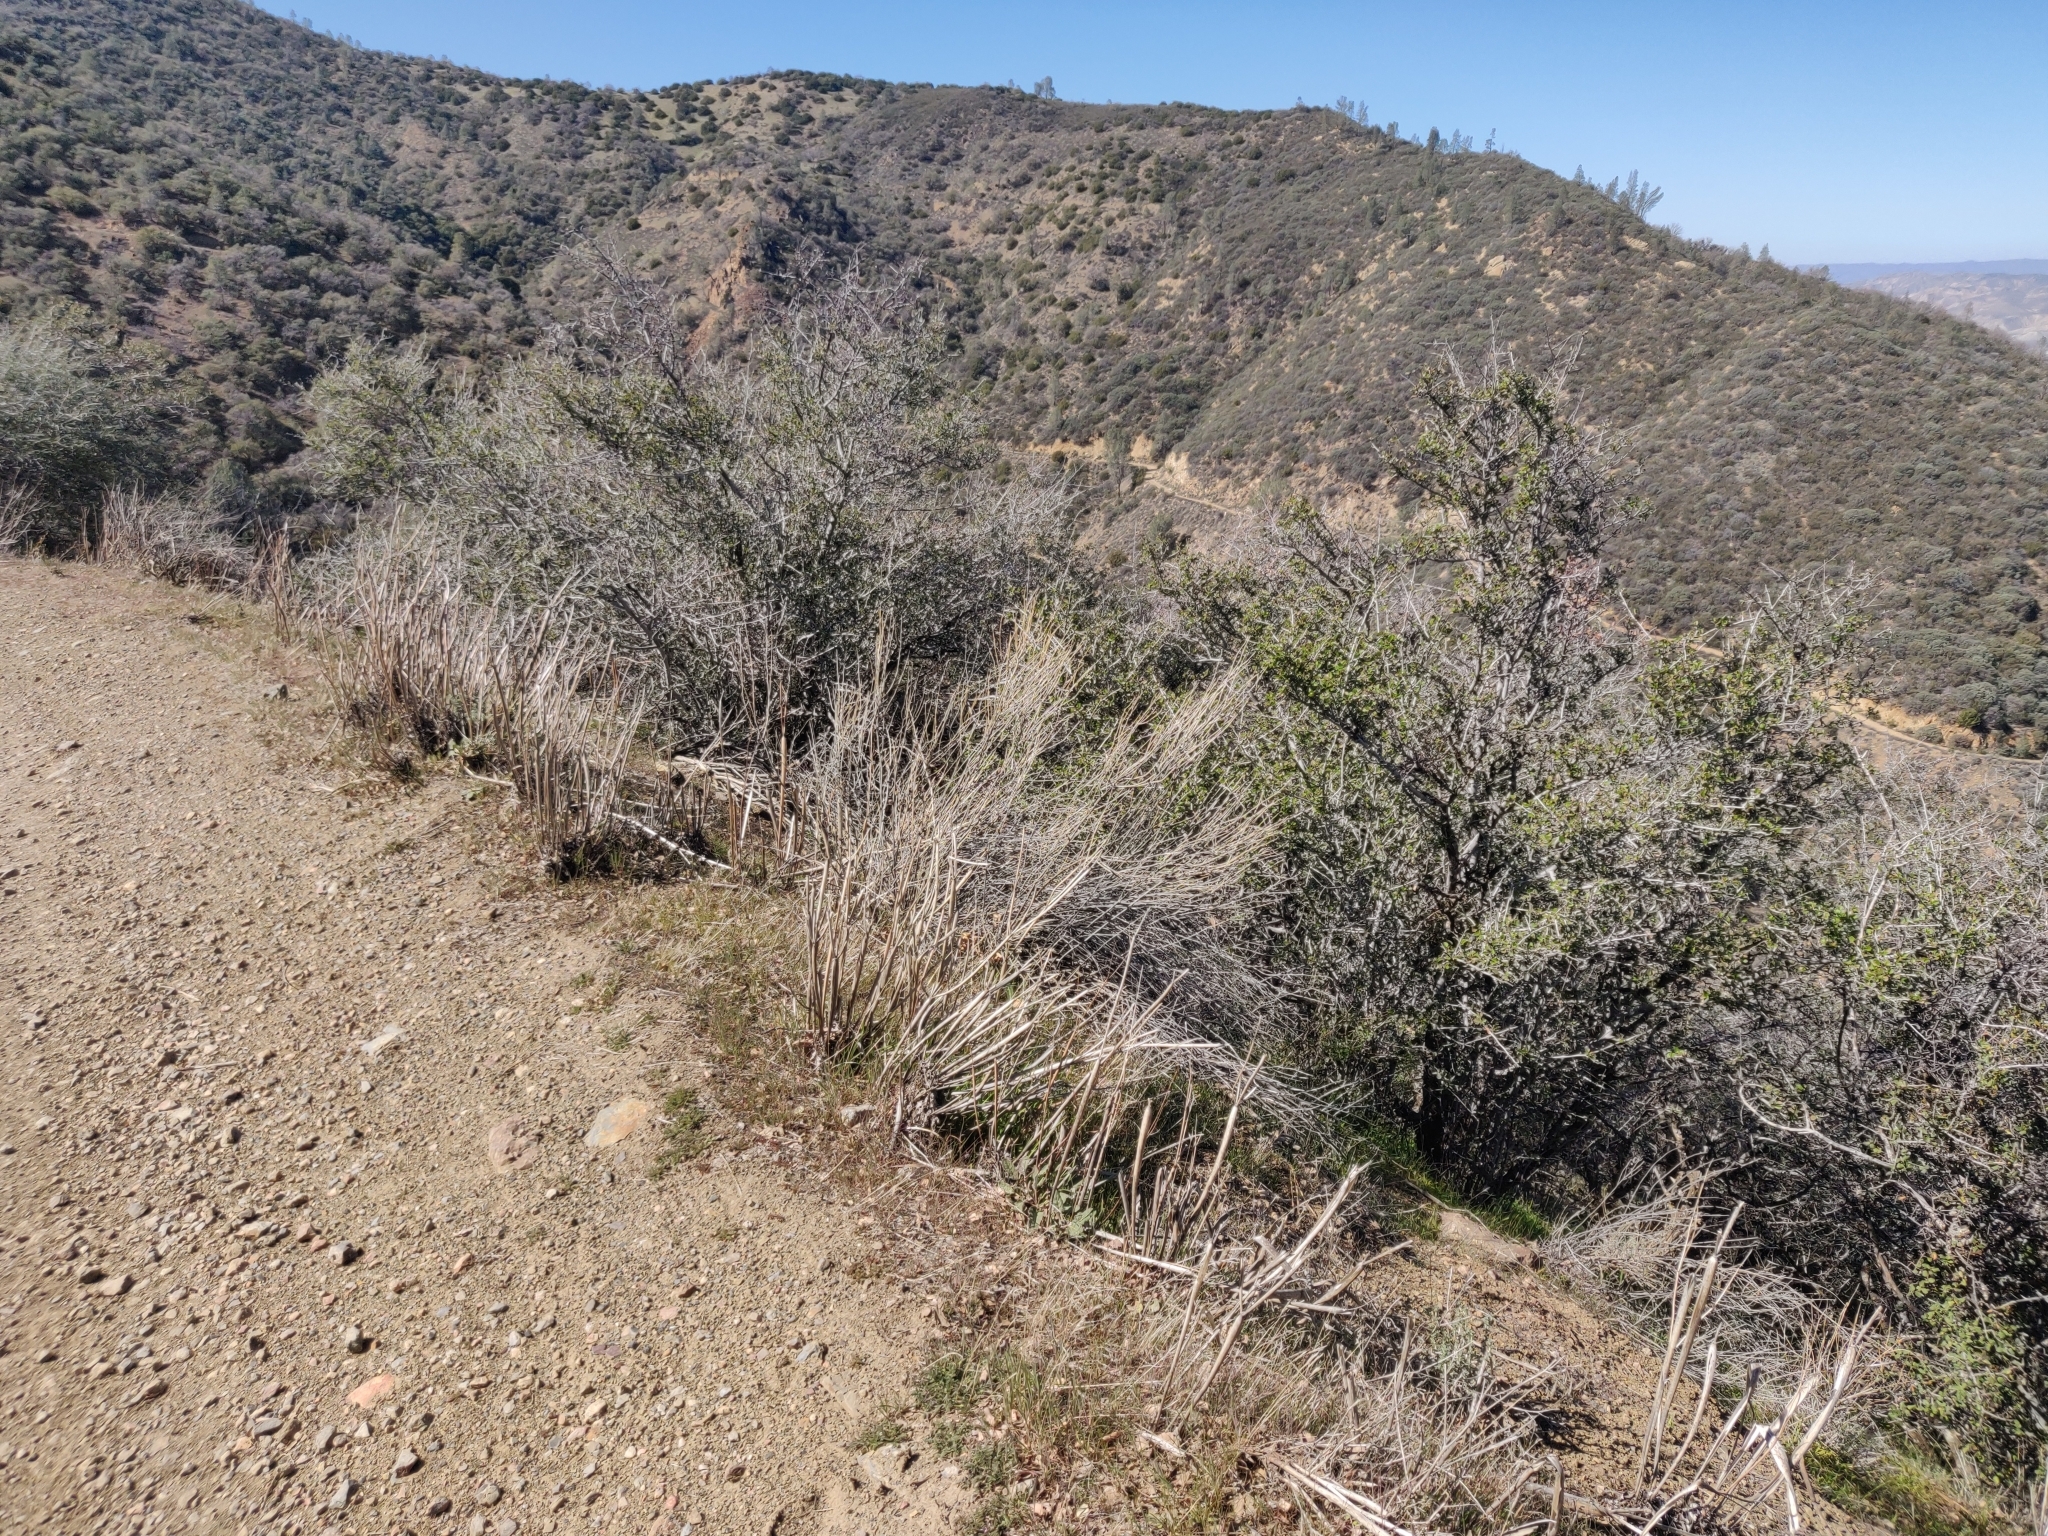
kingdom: Plantae
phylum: Tracheophyta
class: Magnoliopsida
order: Caryophyllales
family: Polygonaceae
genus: Eriogonum
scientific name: Eriogonum nudum
